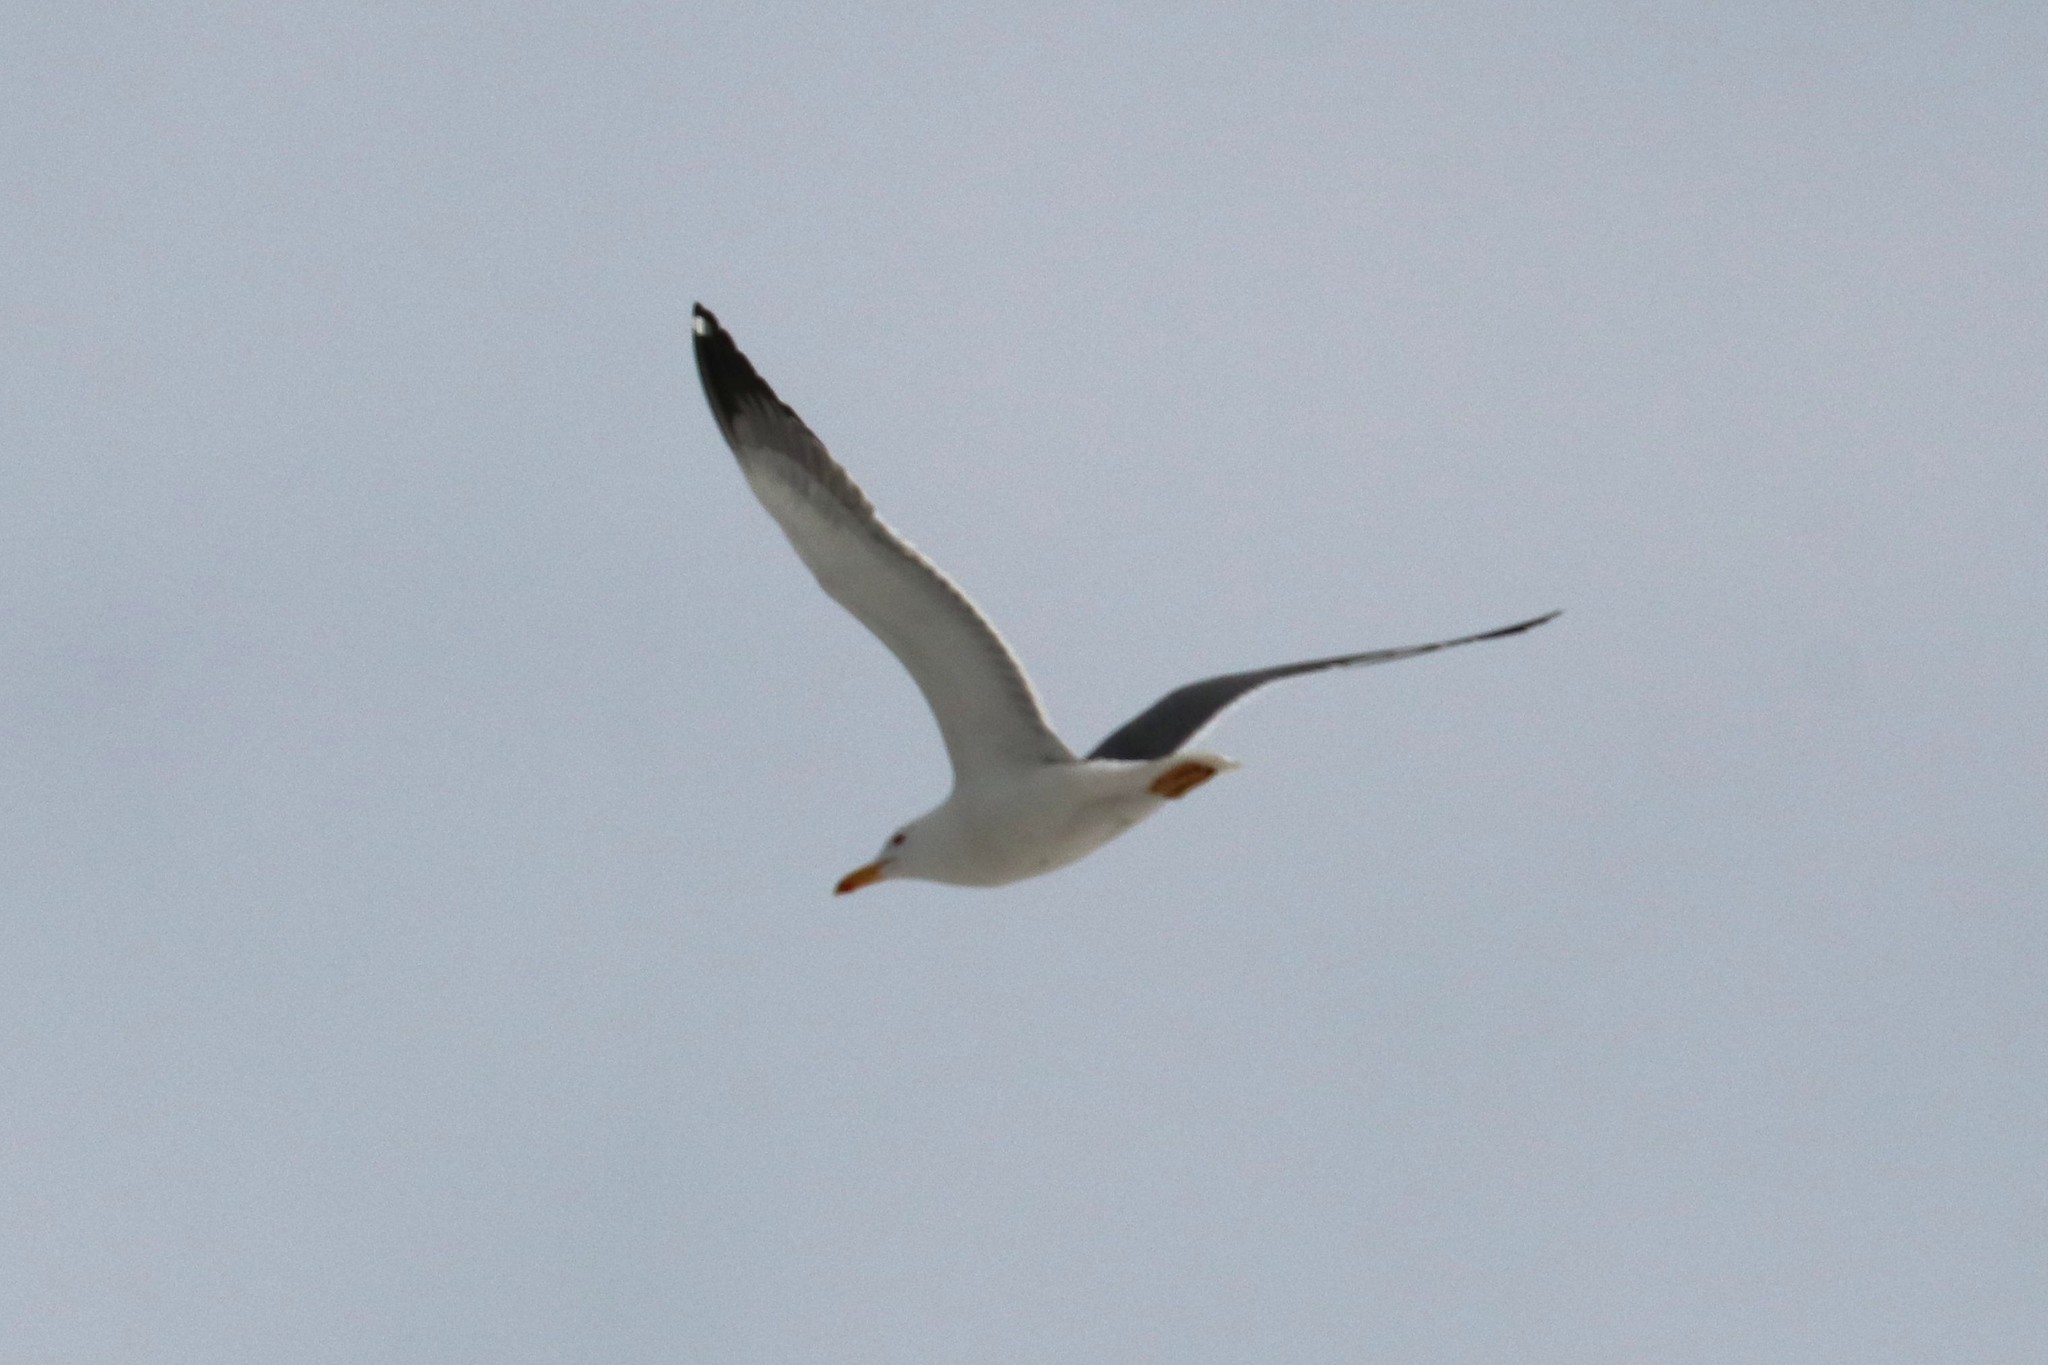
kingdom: Animalia
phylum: Chordata
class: Aves
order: Charadriiformes
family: Laridae
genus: Larus
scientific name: Larus fuscus
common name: Lesser black-backed gull
